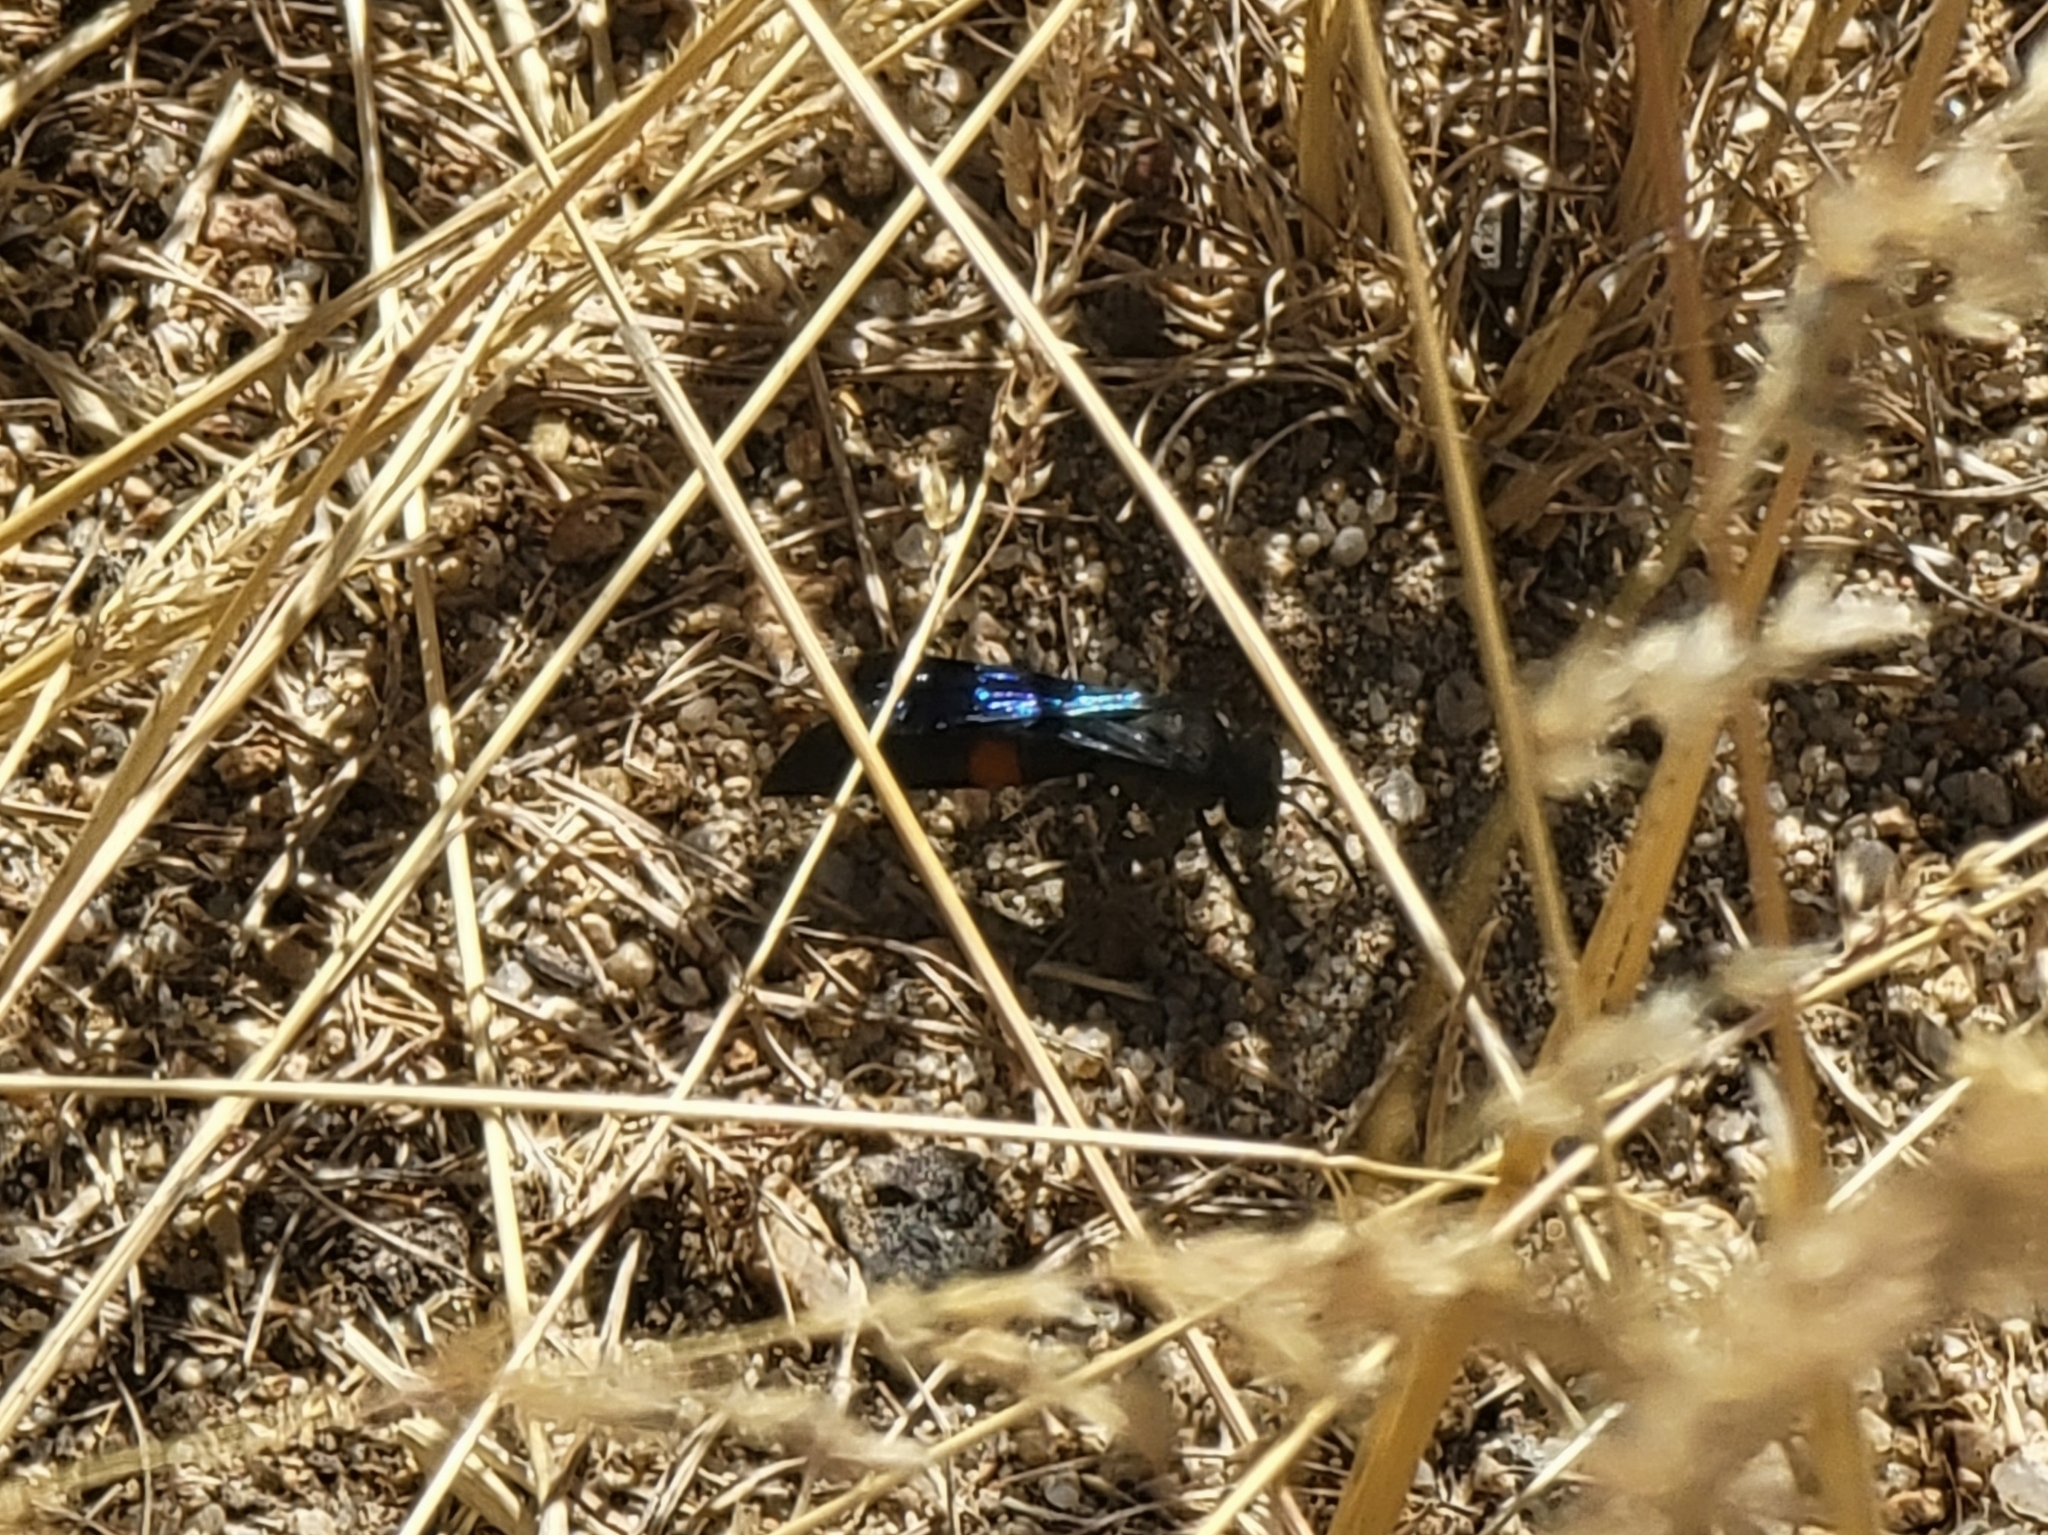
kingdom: Animalia
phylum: Arthropoda
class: Insecta
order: Hymenoptera
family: Crabronidae
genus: Stizoides
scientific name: Stizoides renicinctus
